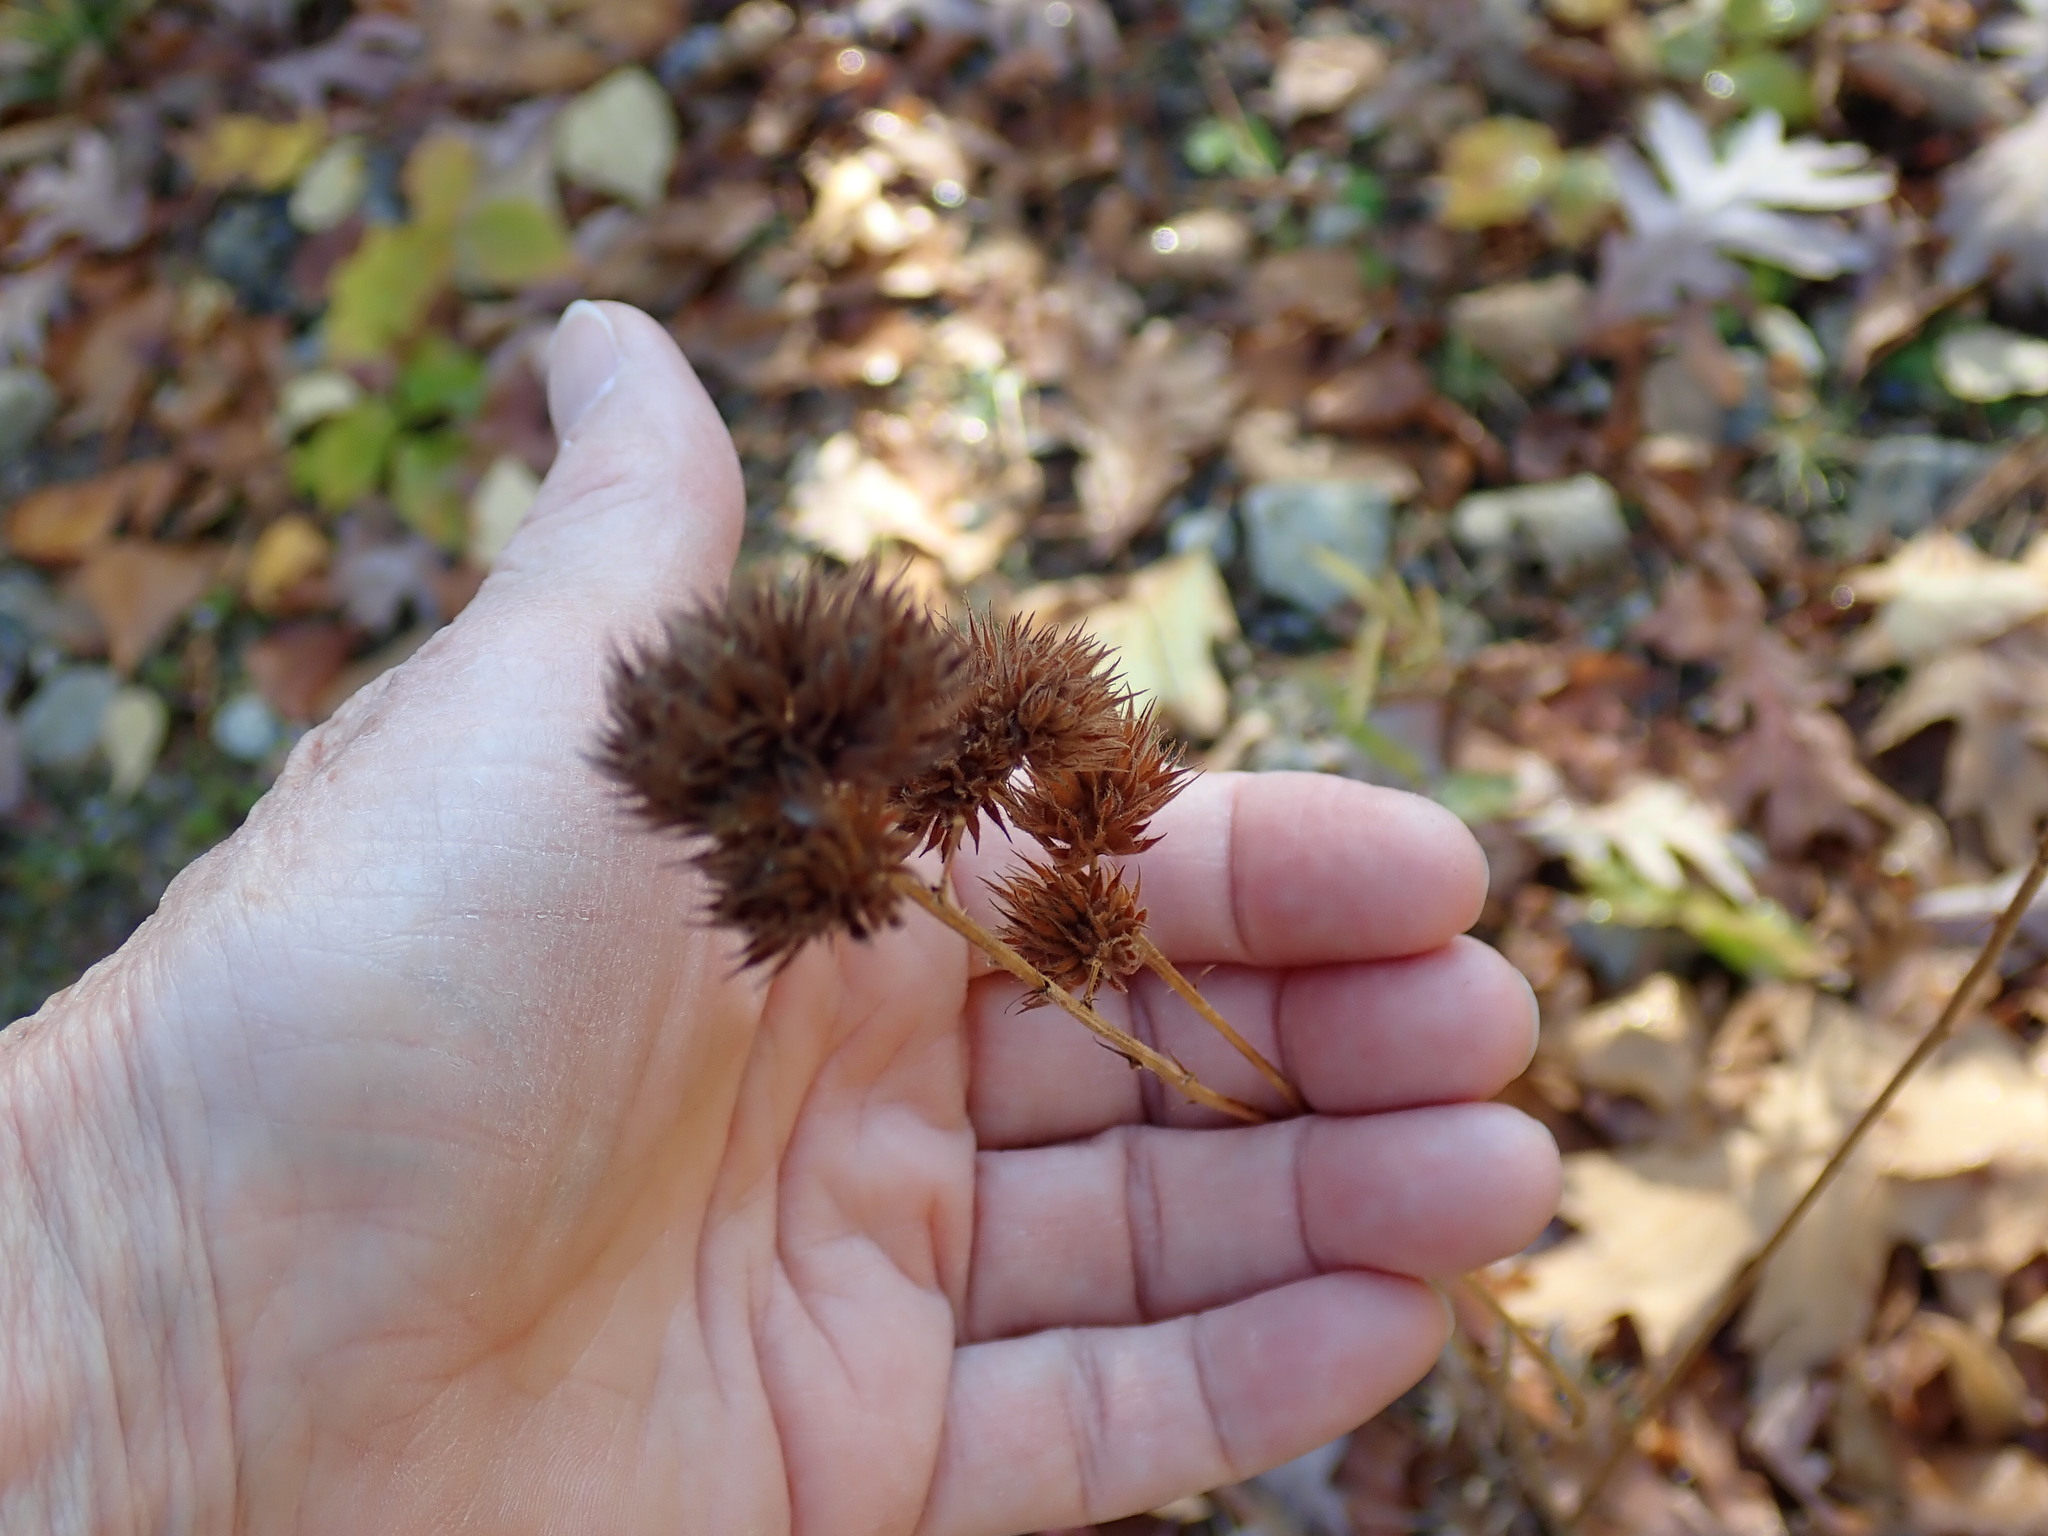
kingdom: Plantae
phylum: Tracheophyta
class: Magnoliopsida
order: Fabales
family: Fabaceae
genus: Lespedeza
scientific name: Lespedeza capitata
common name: Dusty clover
